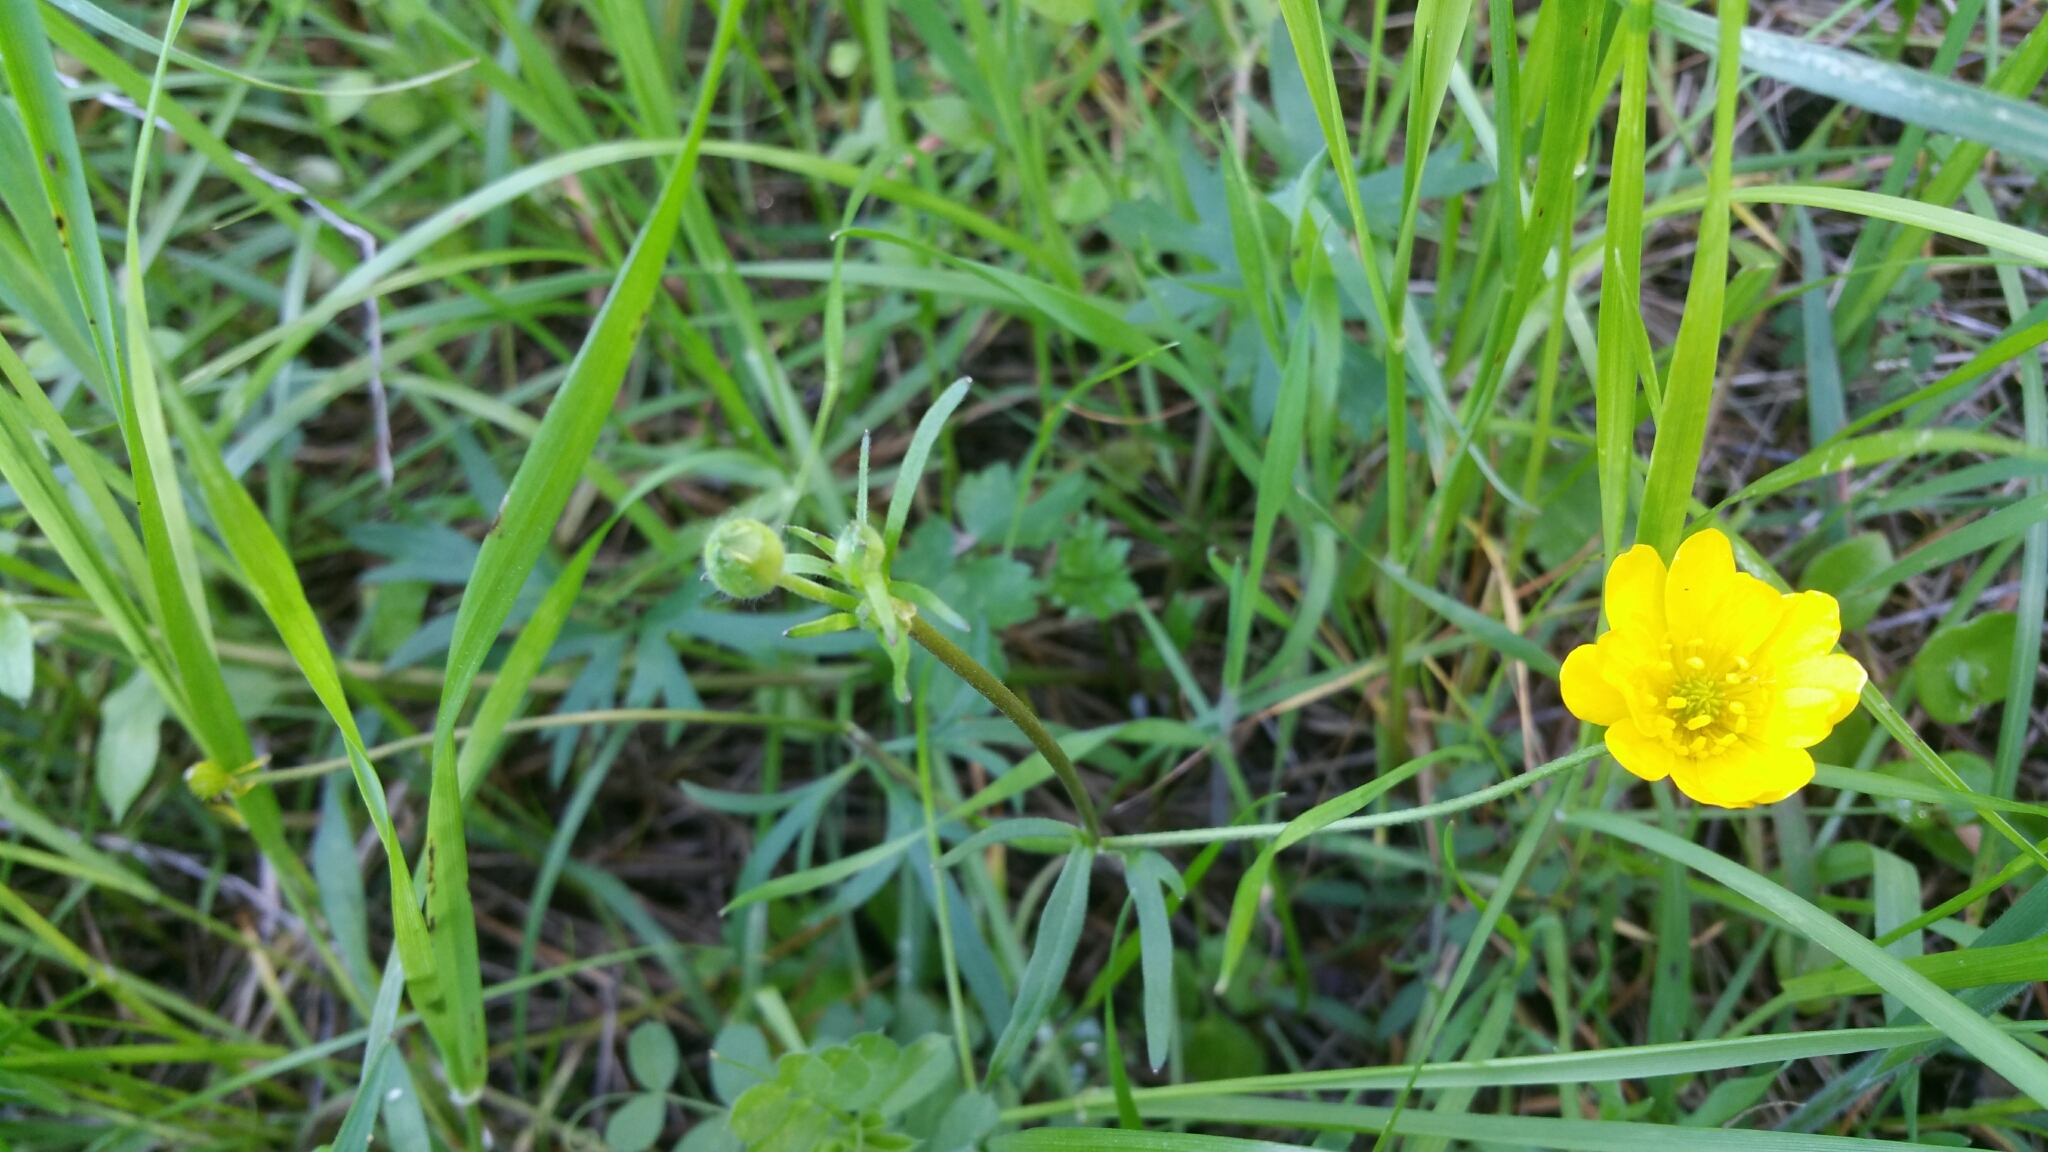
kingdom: Plantae
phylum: Tracheophyta
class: Magnoliopsida
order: Ranunculales
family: Ranunculaceae
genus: Ranunculus
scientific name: Ranunculus californicus
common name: California buttercup
